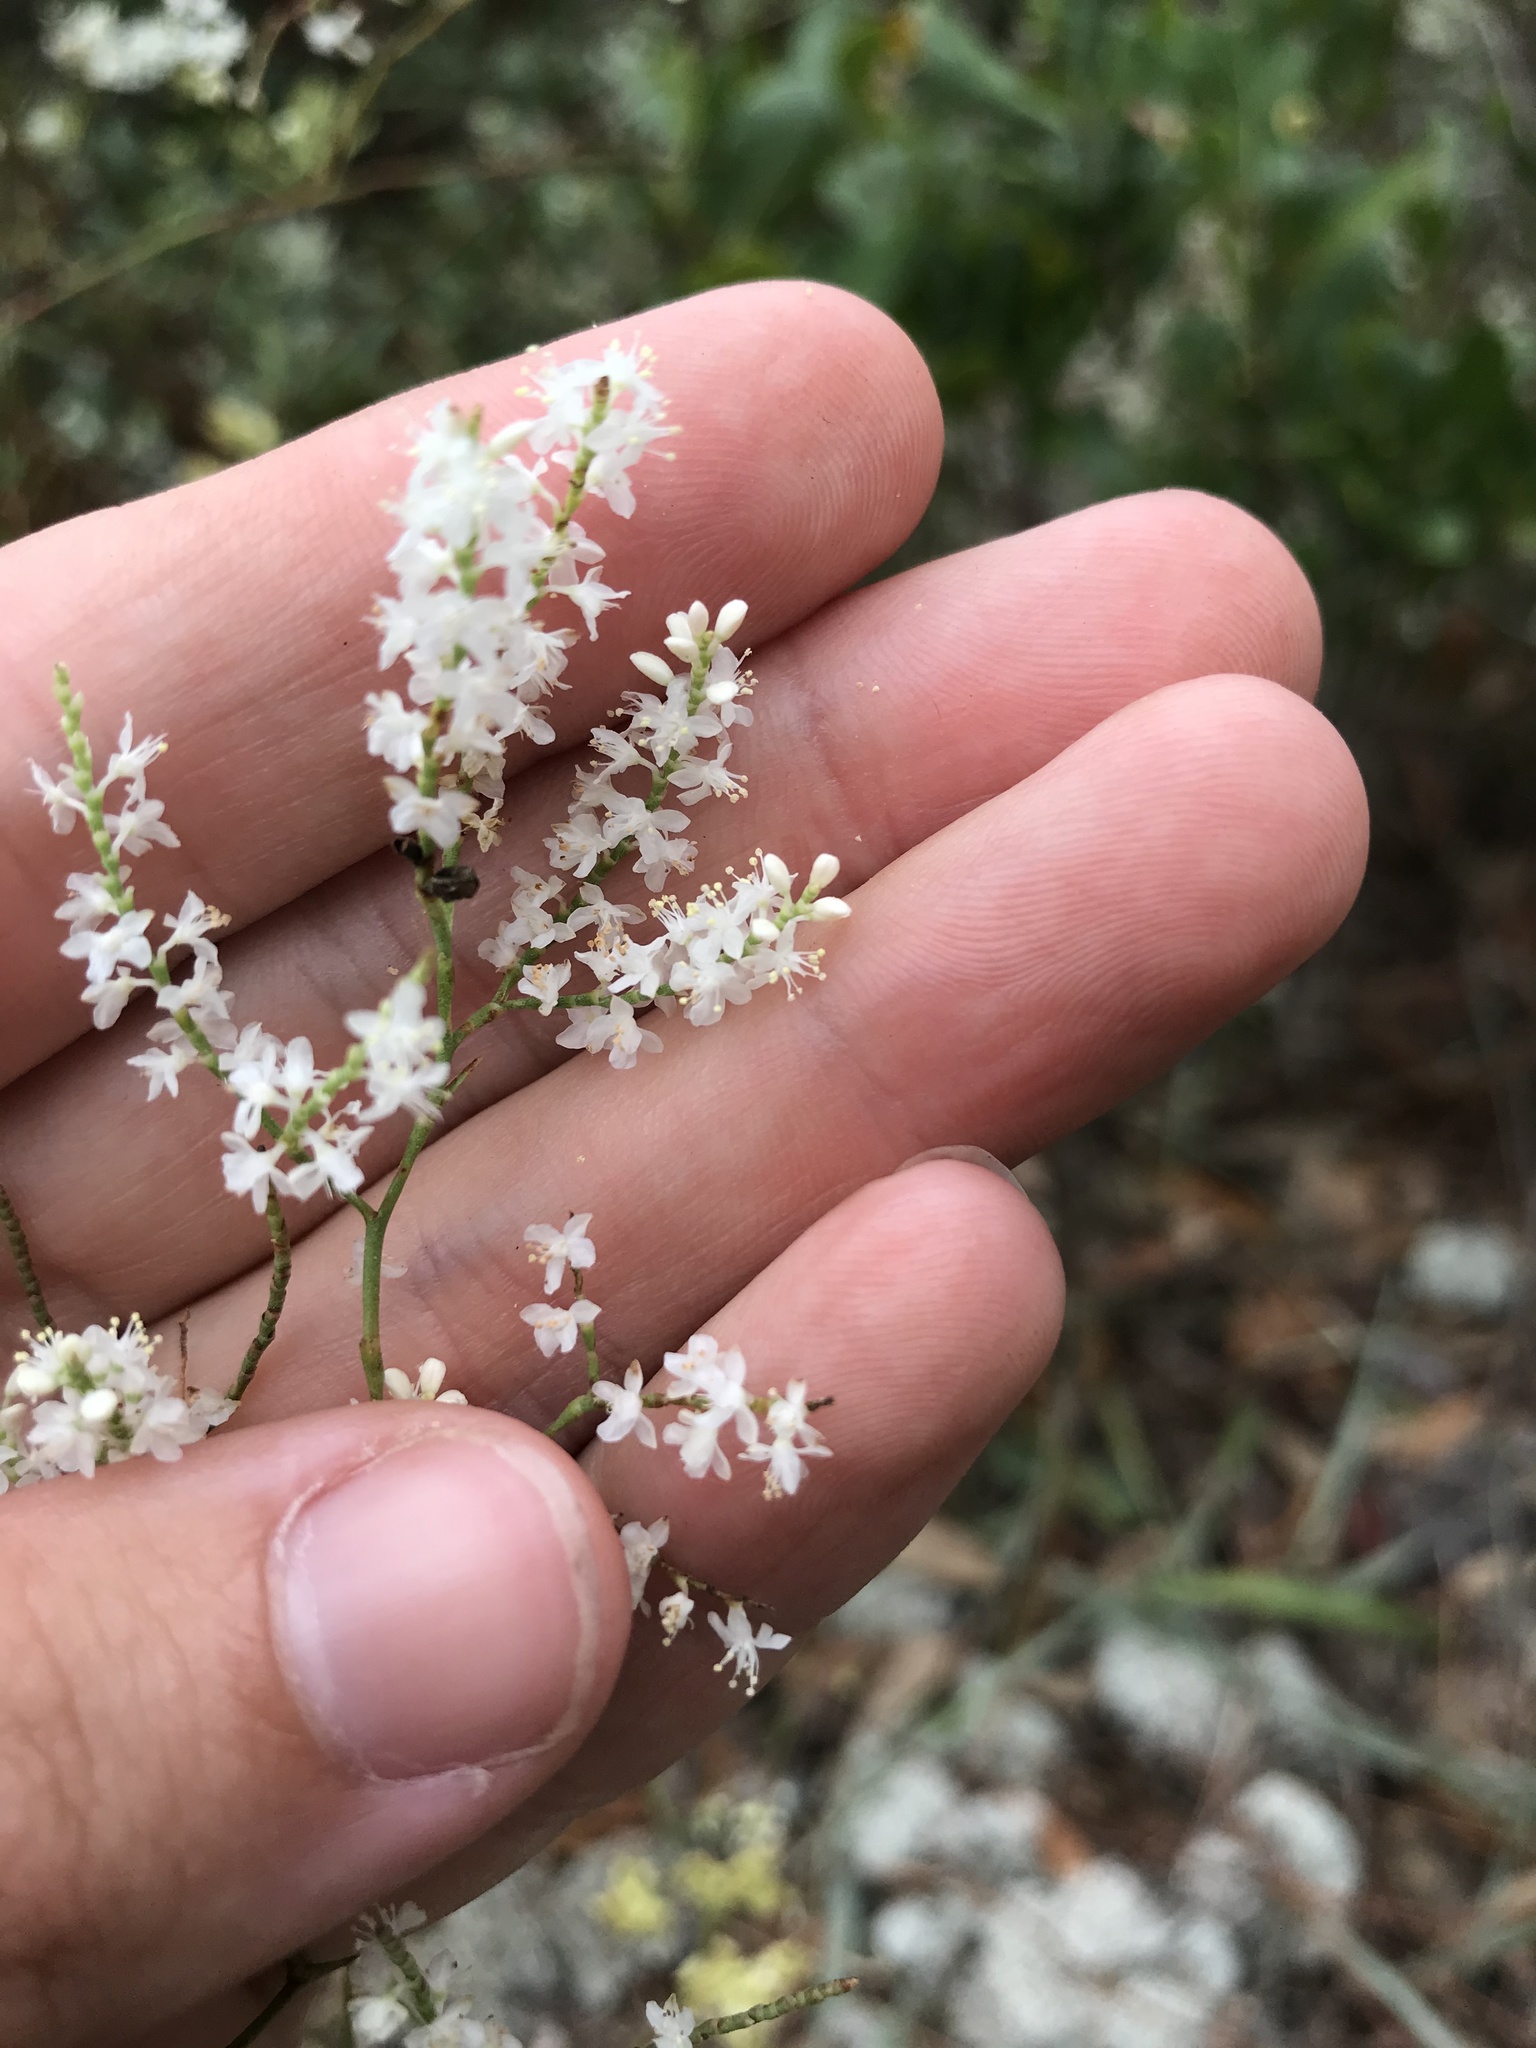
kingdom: Plantae
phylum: Tracheophyta
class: Magnoliopsida
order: Caryophyllales
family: Polygonaceae
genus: Polygonella
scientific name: Polygonella polygama
